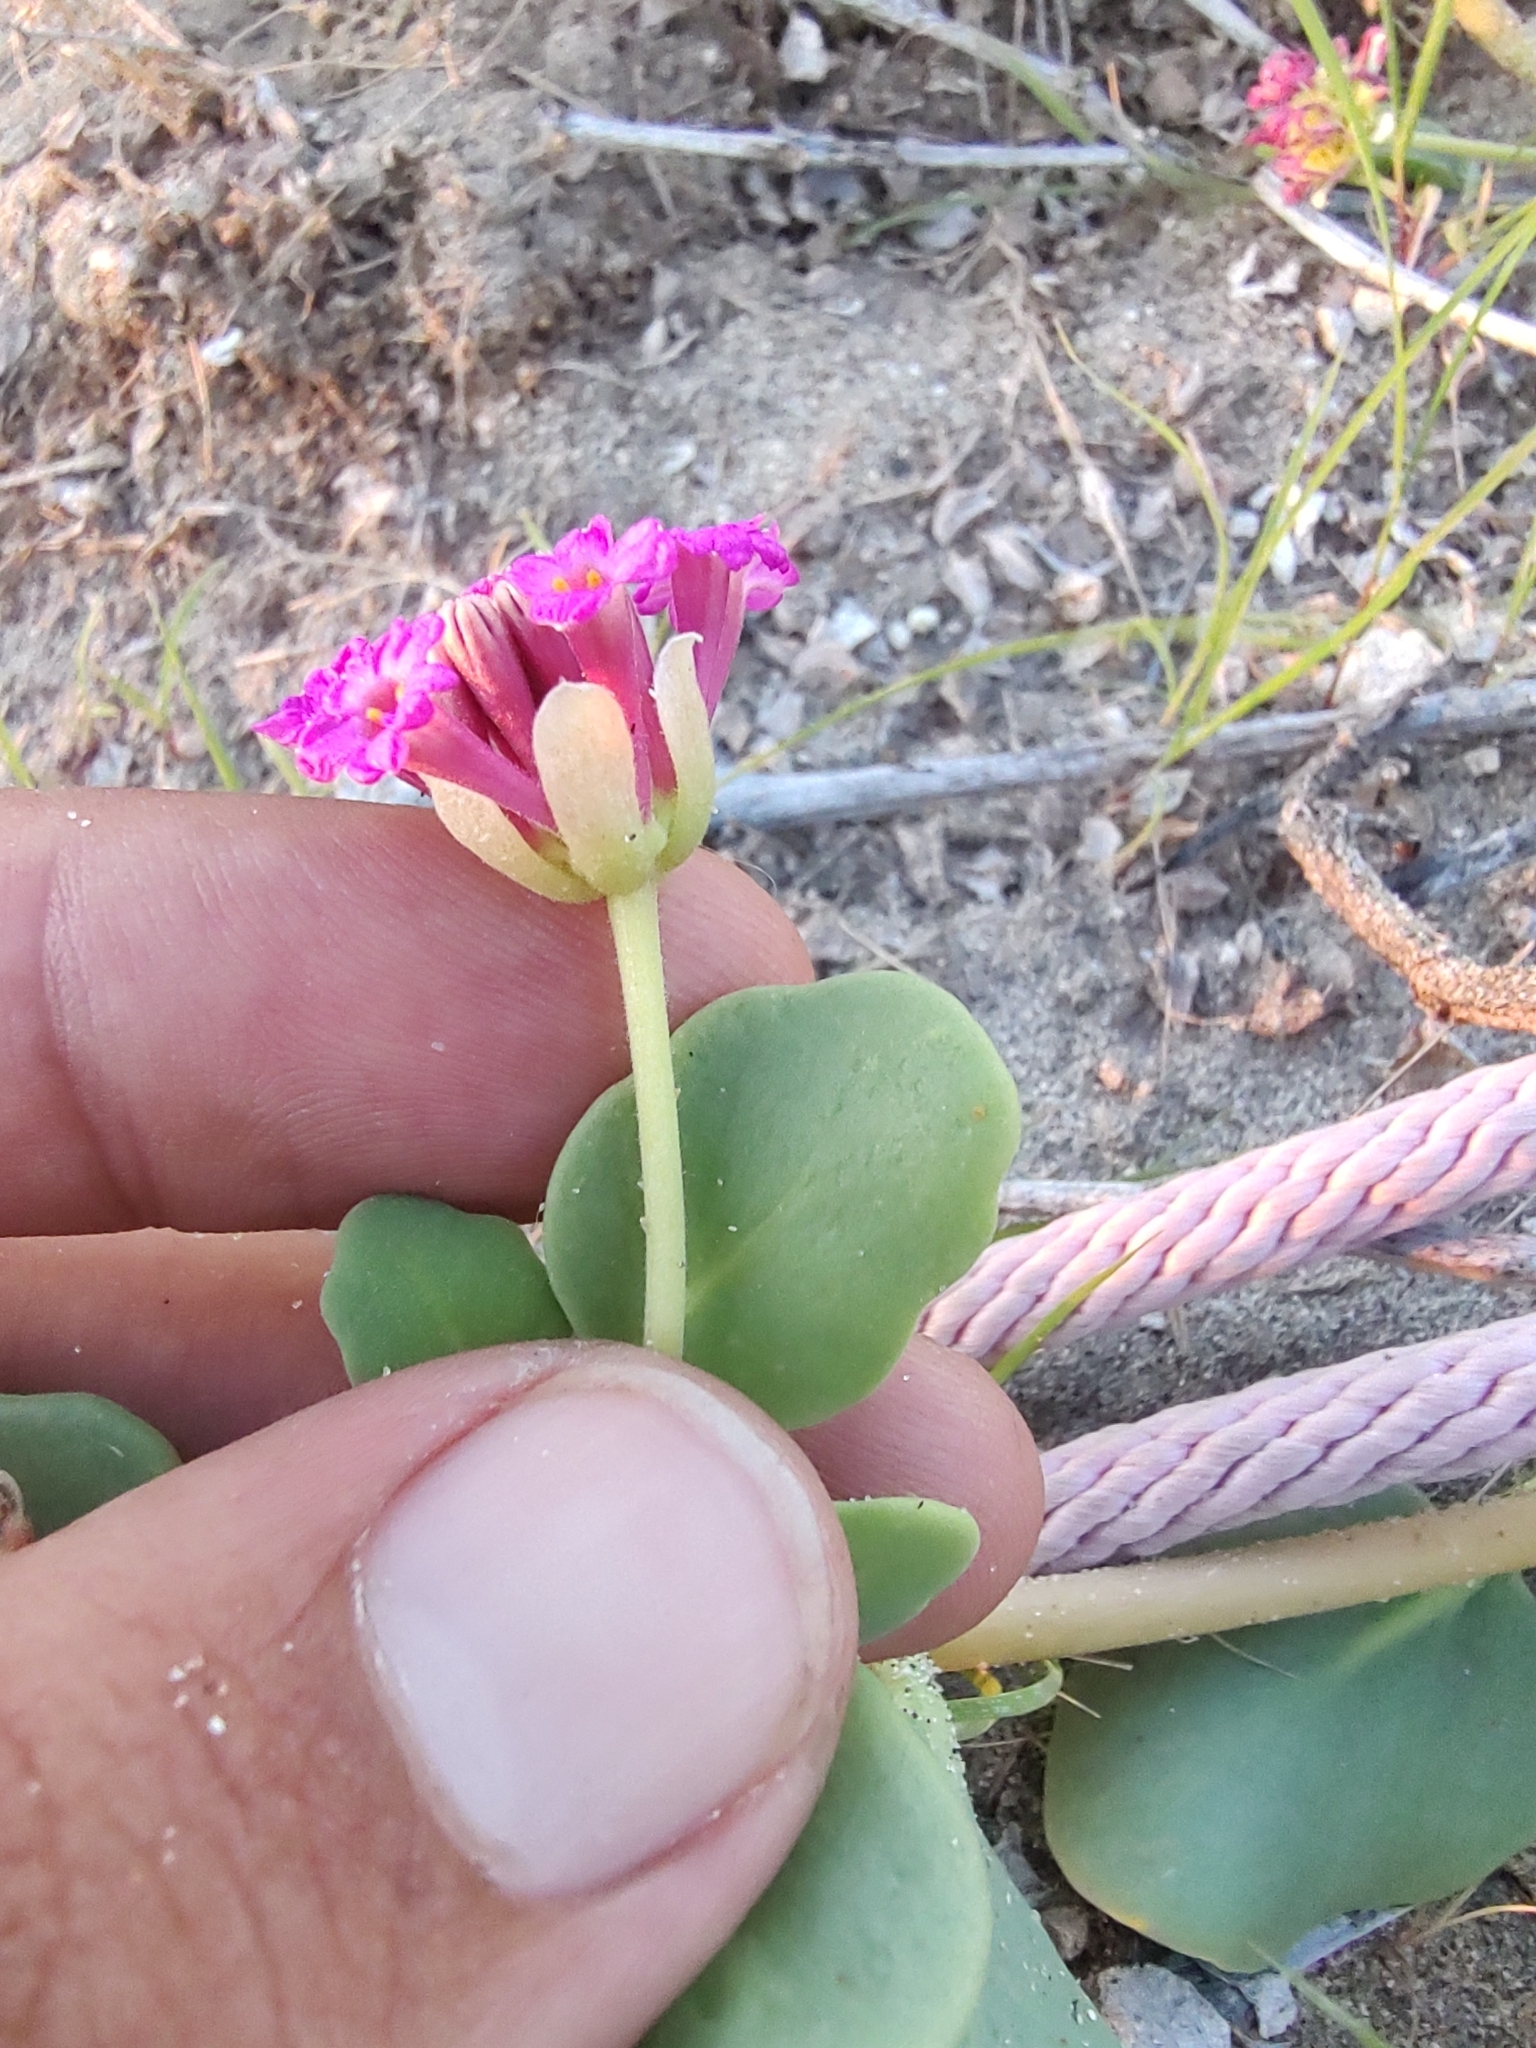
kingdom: Plantae
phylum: Tracheophyta
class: Magnoliopsida
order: Caryophyllales
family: Nyctaginaceae
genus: Abronia
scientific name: Abronia maritima
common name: Red sand-verbena
